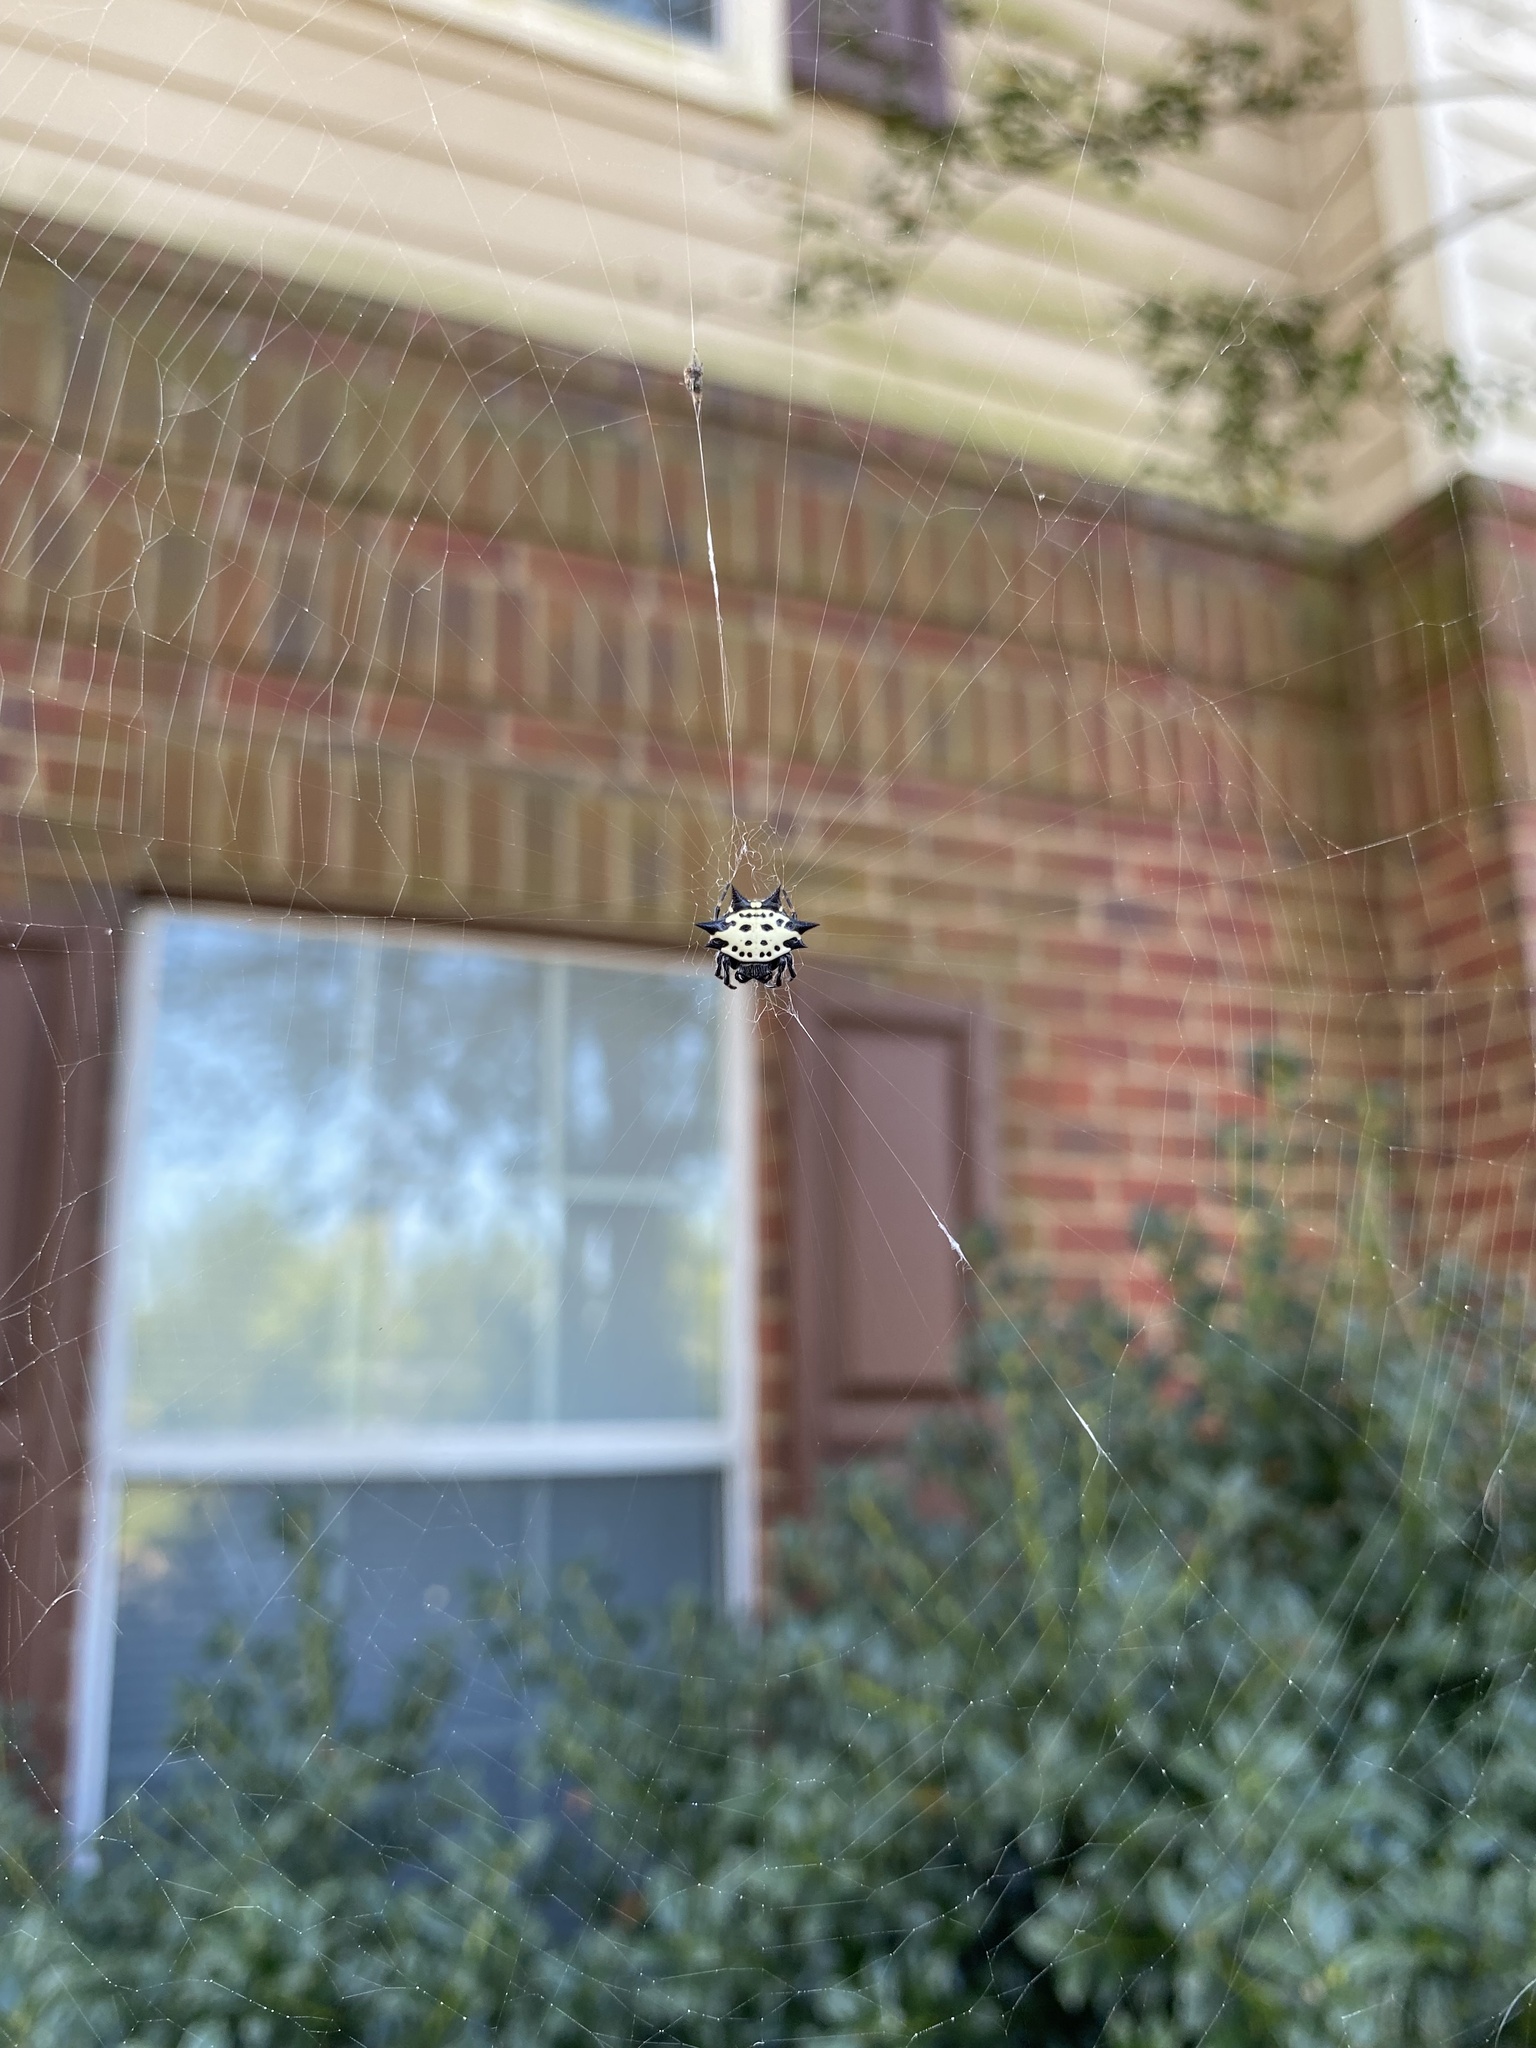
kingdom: Animalia
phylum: Arthropoda
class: Arachnida
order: Araneae
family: Araneidae
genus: Gasteracantha
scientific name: Gasteracantha cancriformis
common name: Orb weavers
